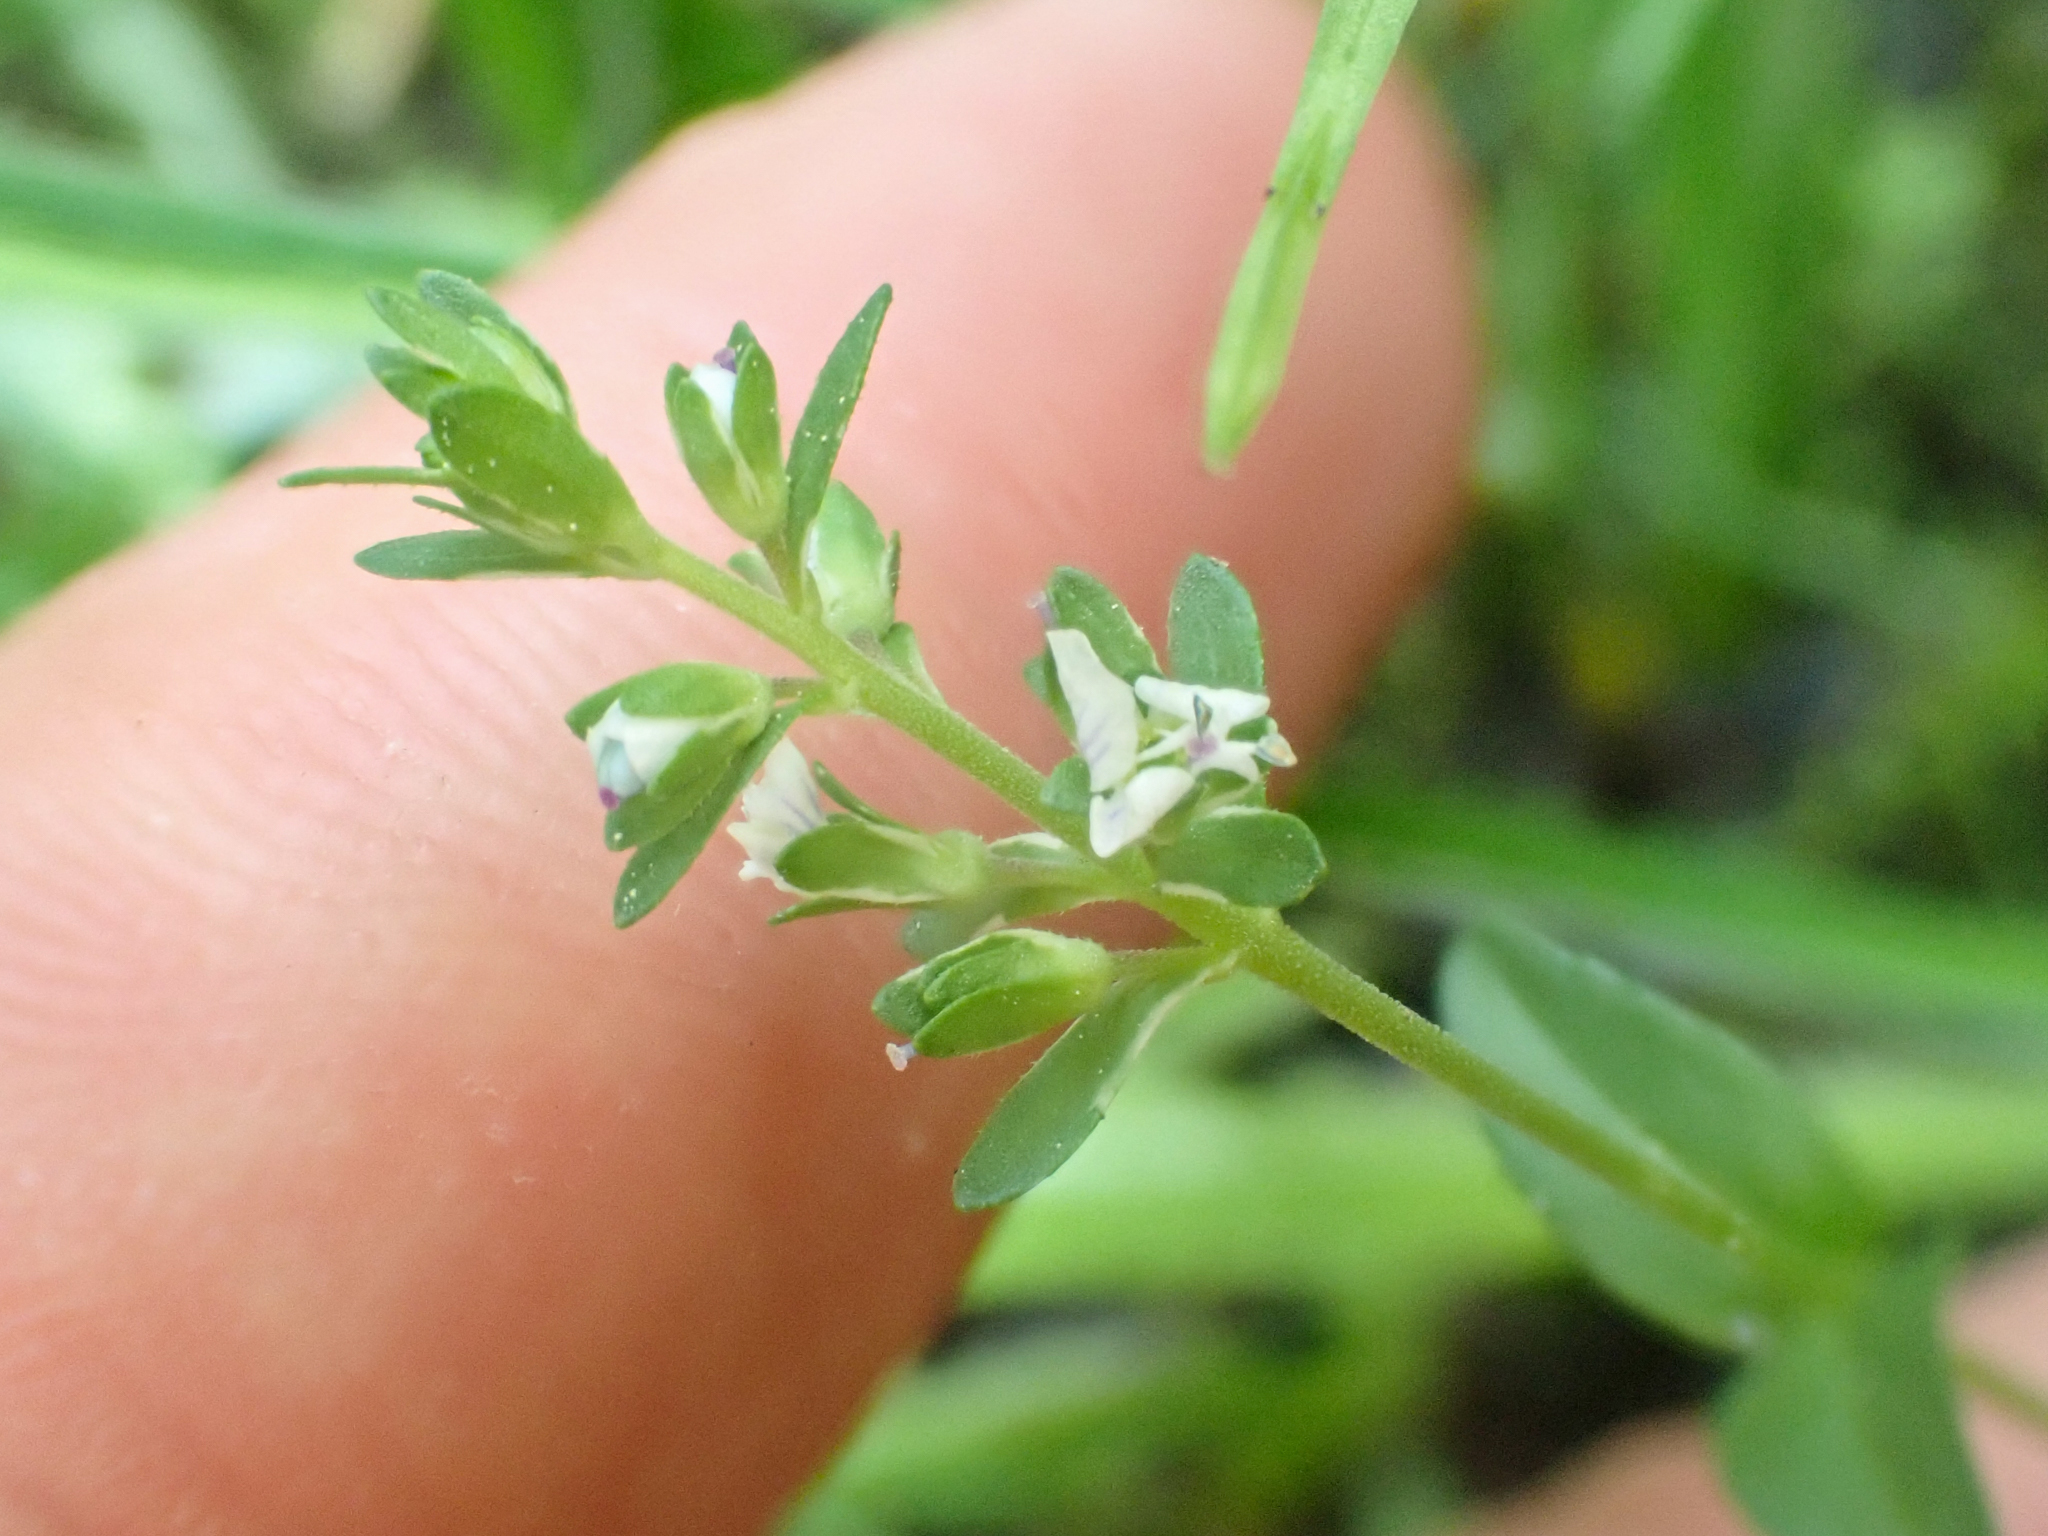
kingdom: Plantae
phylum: Tracheophyta
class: Magnoliopsida
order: Lamiales
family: Plantaginaceae
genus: Veronica
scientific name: Veronica serpyllifolia
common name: Thyme-leaved speedwell
